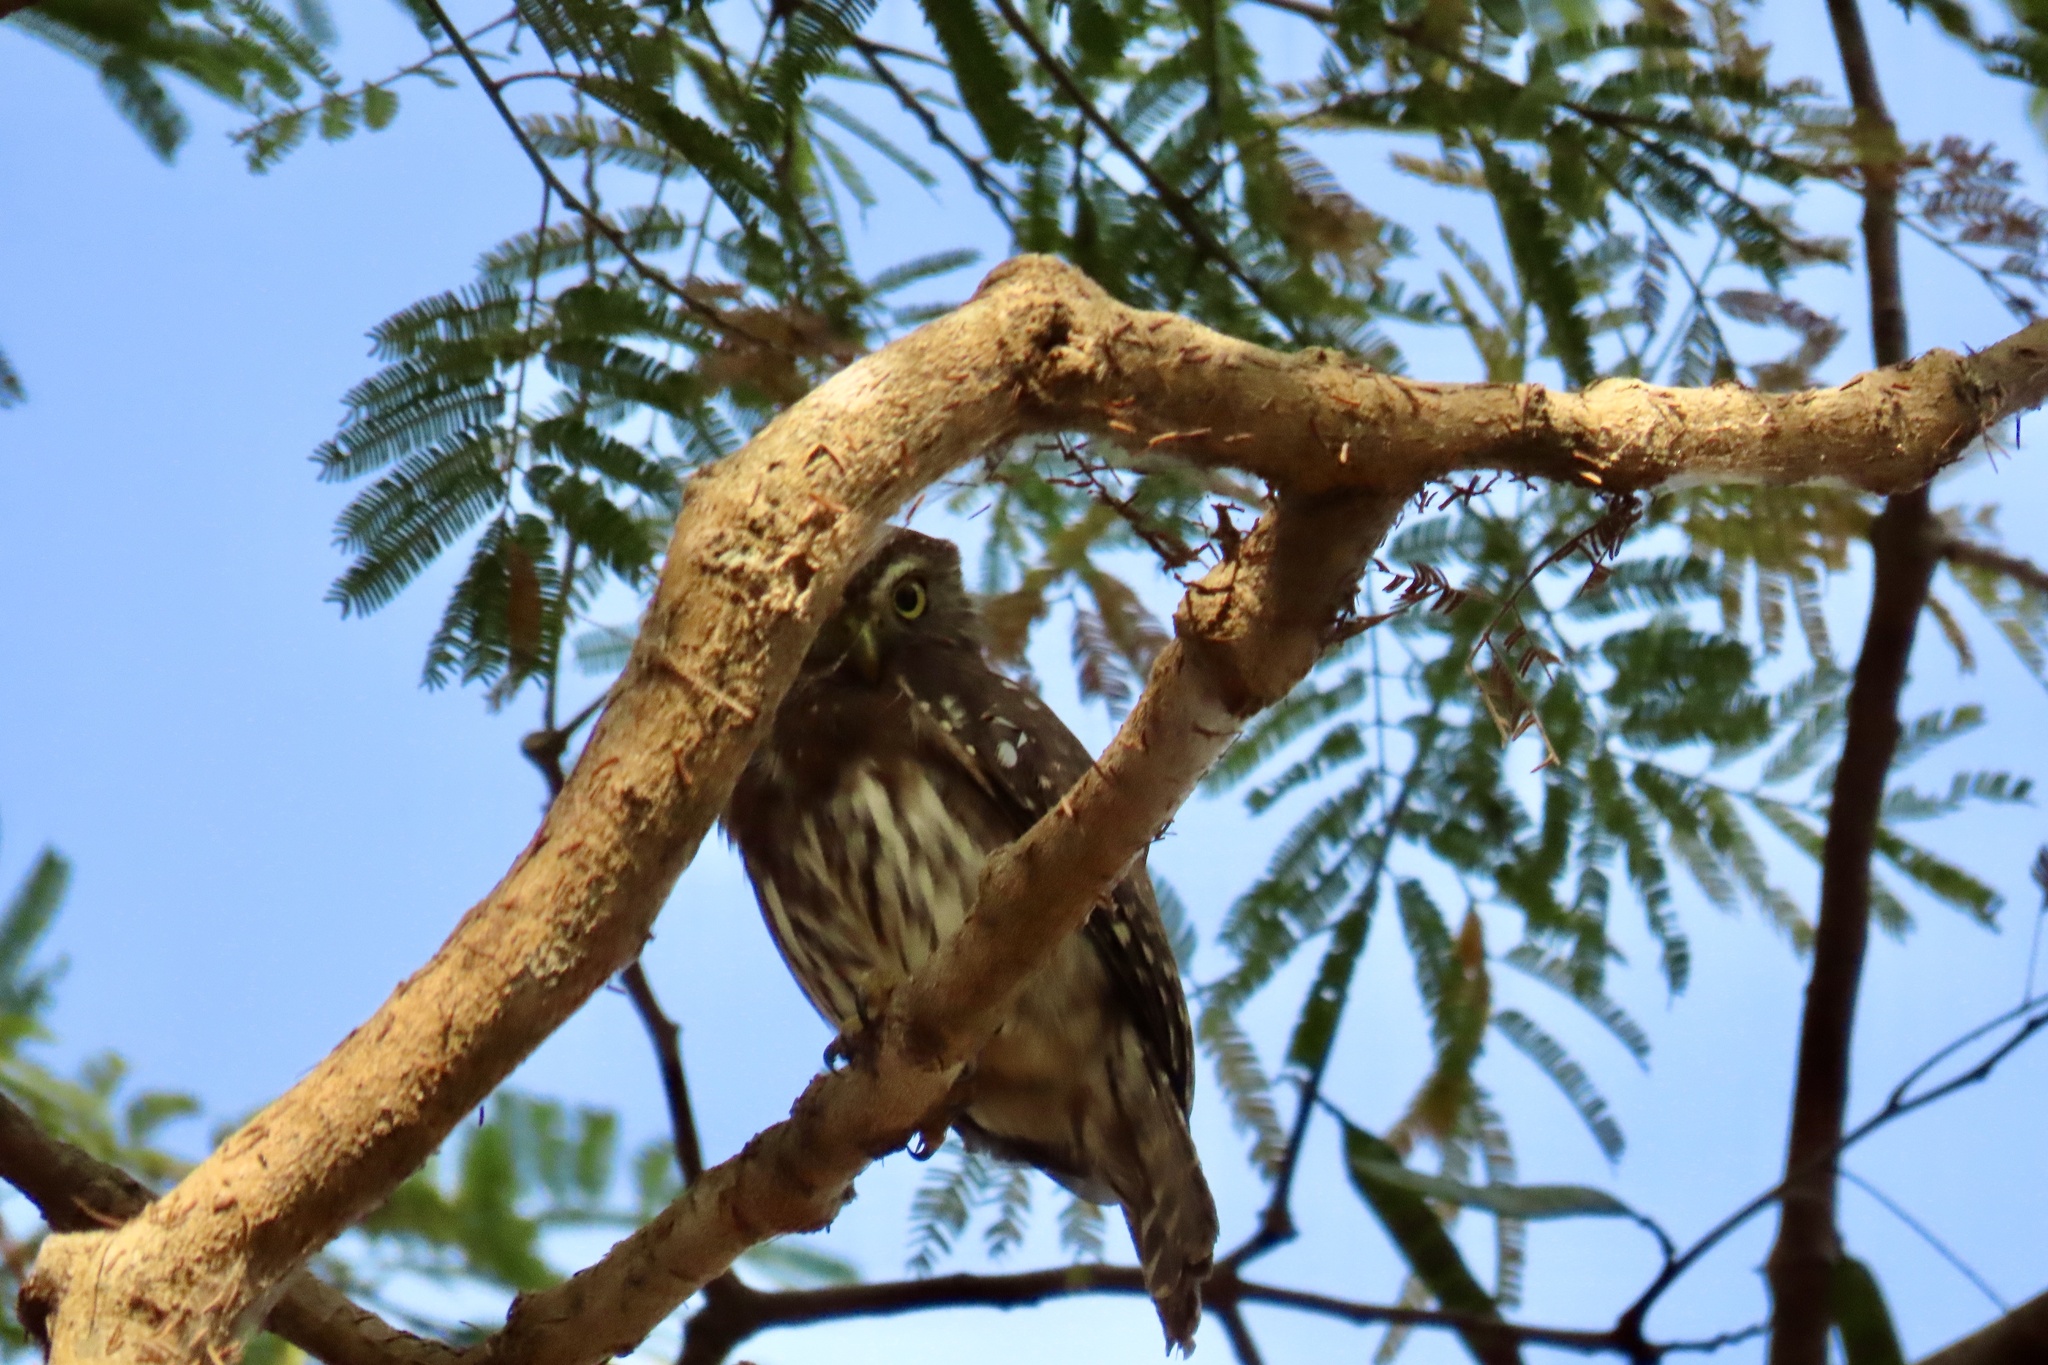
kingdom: Animalia
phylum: Chordata
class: Aves
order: Strigiformes
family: Strigidae
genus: Glaucidium
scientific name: Glaucidium brasilianum
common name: Ferruginous pygmy-owl
